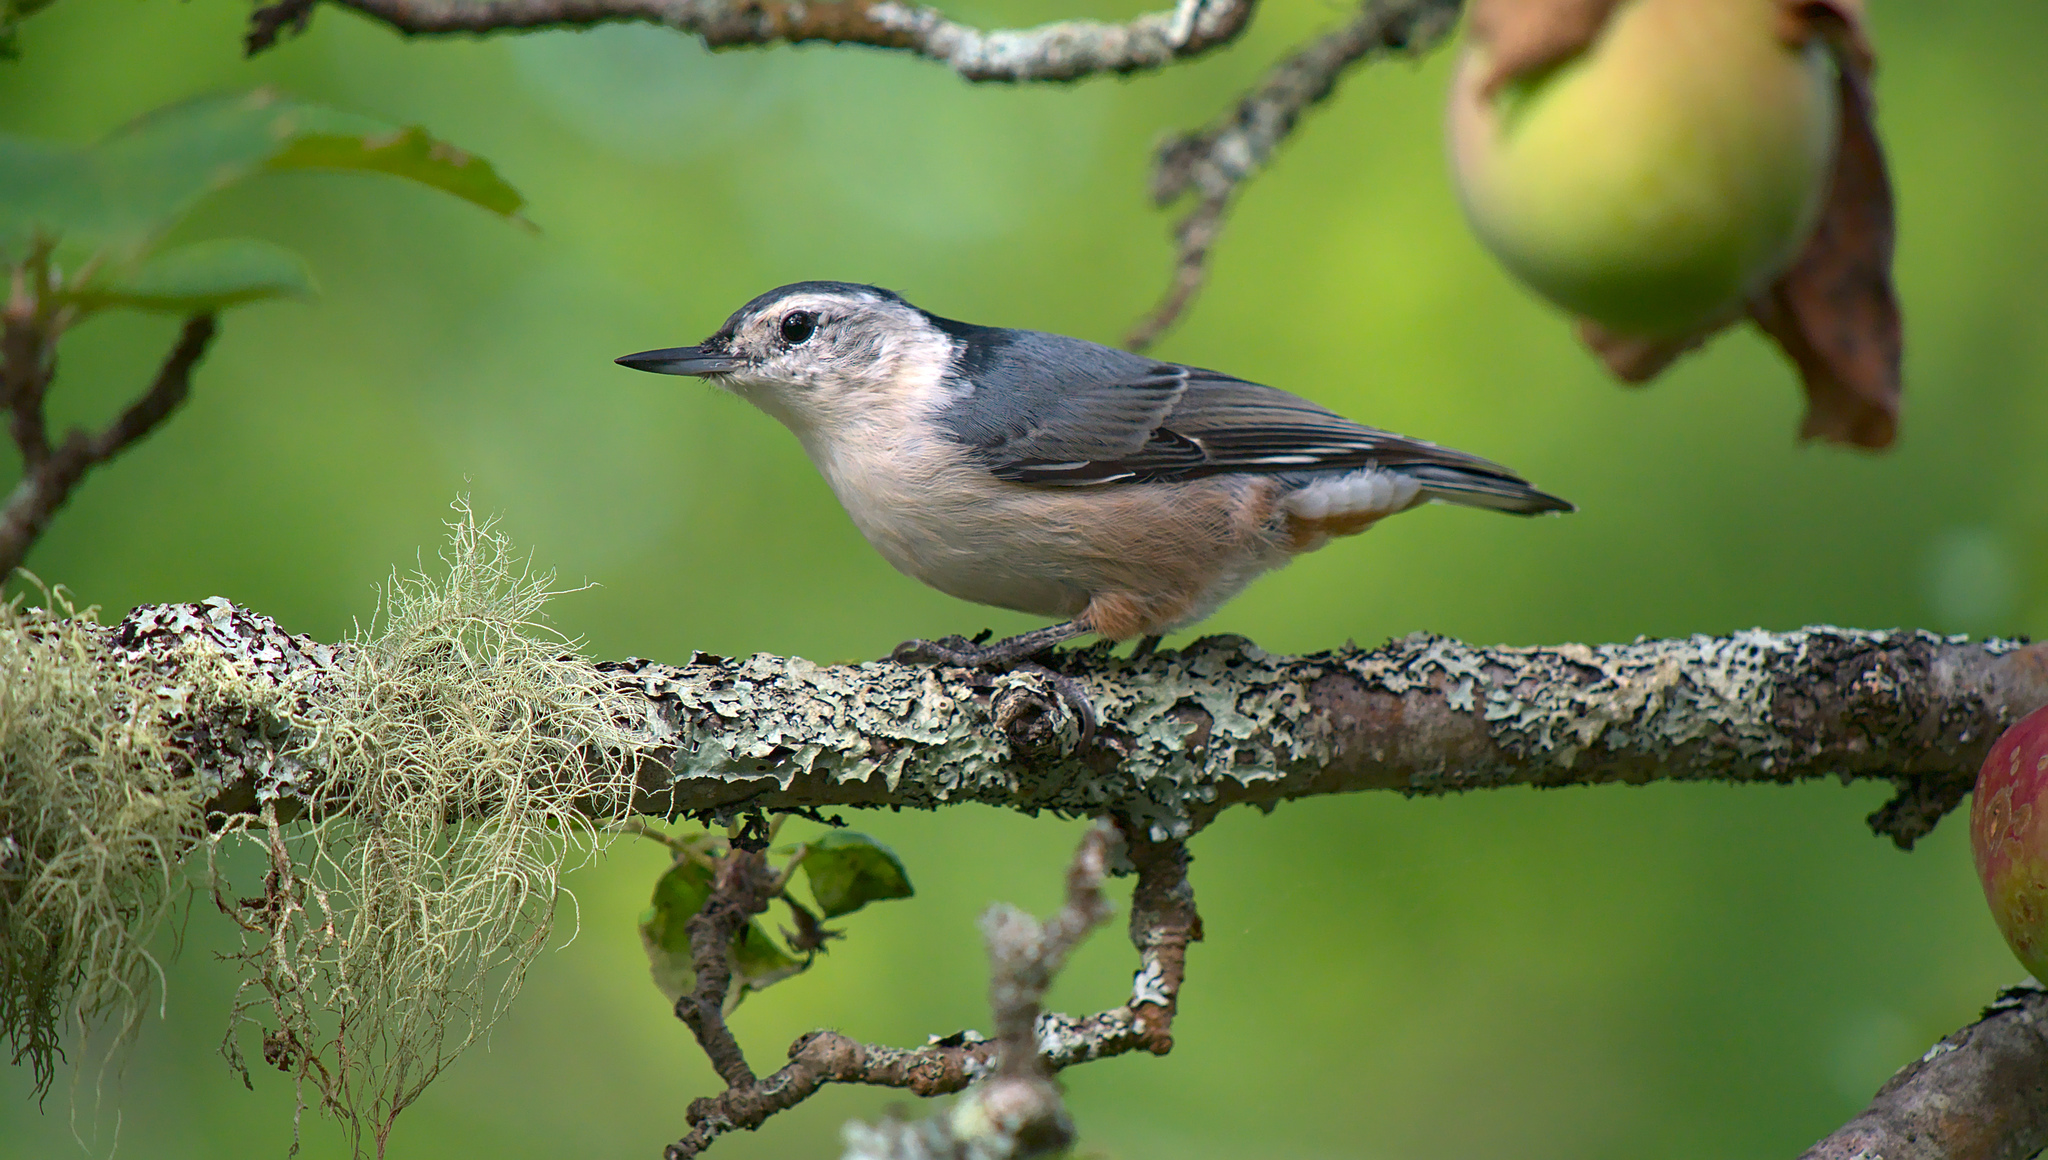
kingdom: Animalia
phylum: Chordata
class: Aves
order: Passeriformes
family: Sittidae
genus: Sitta
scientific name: Sitta carolinensis
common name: White-breasted nuthatch
